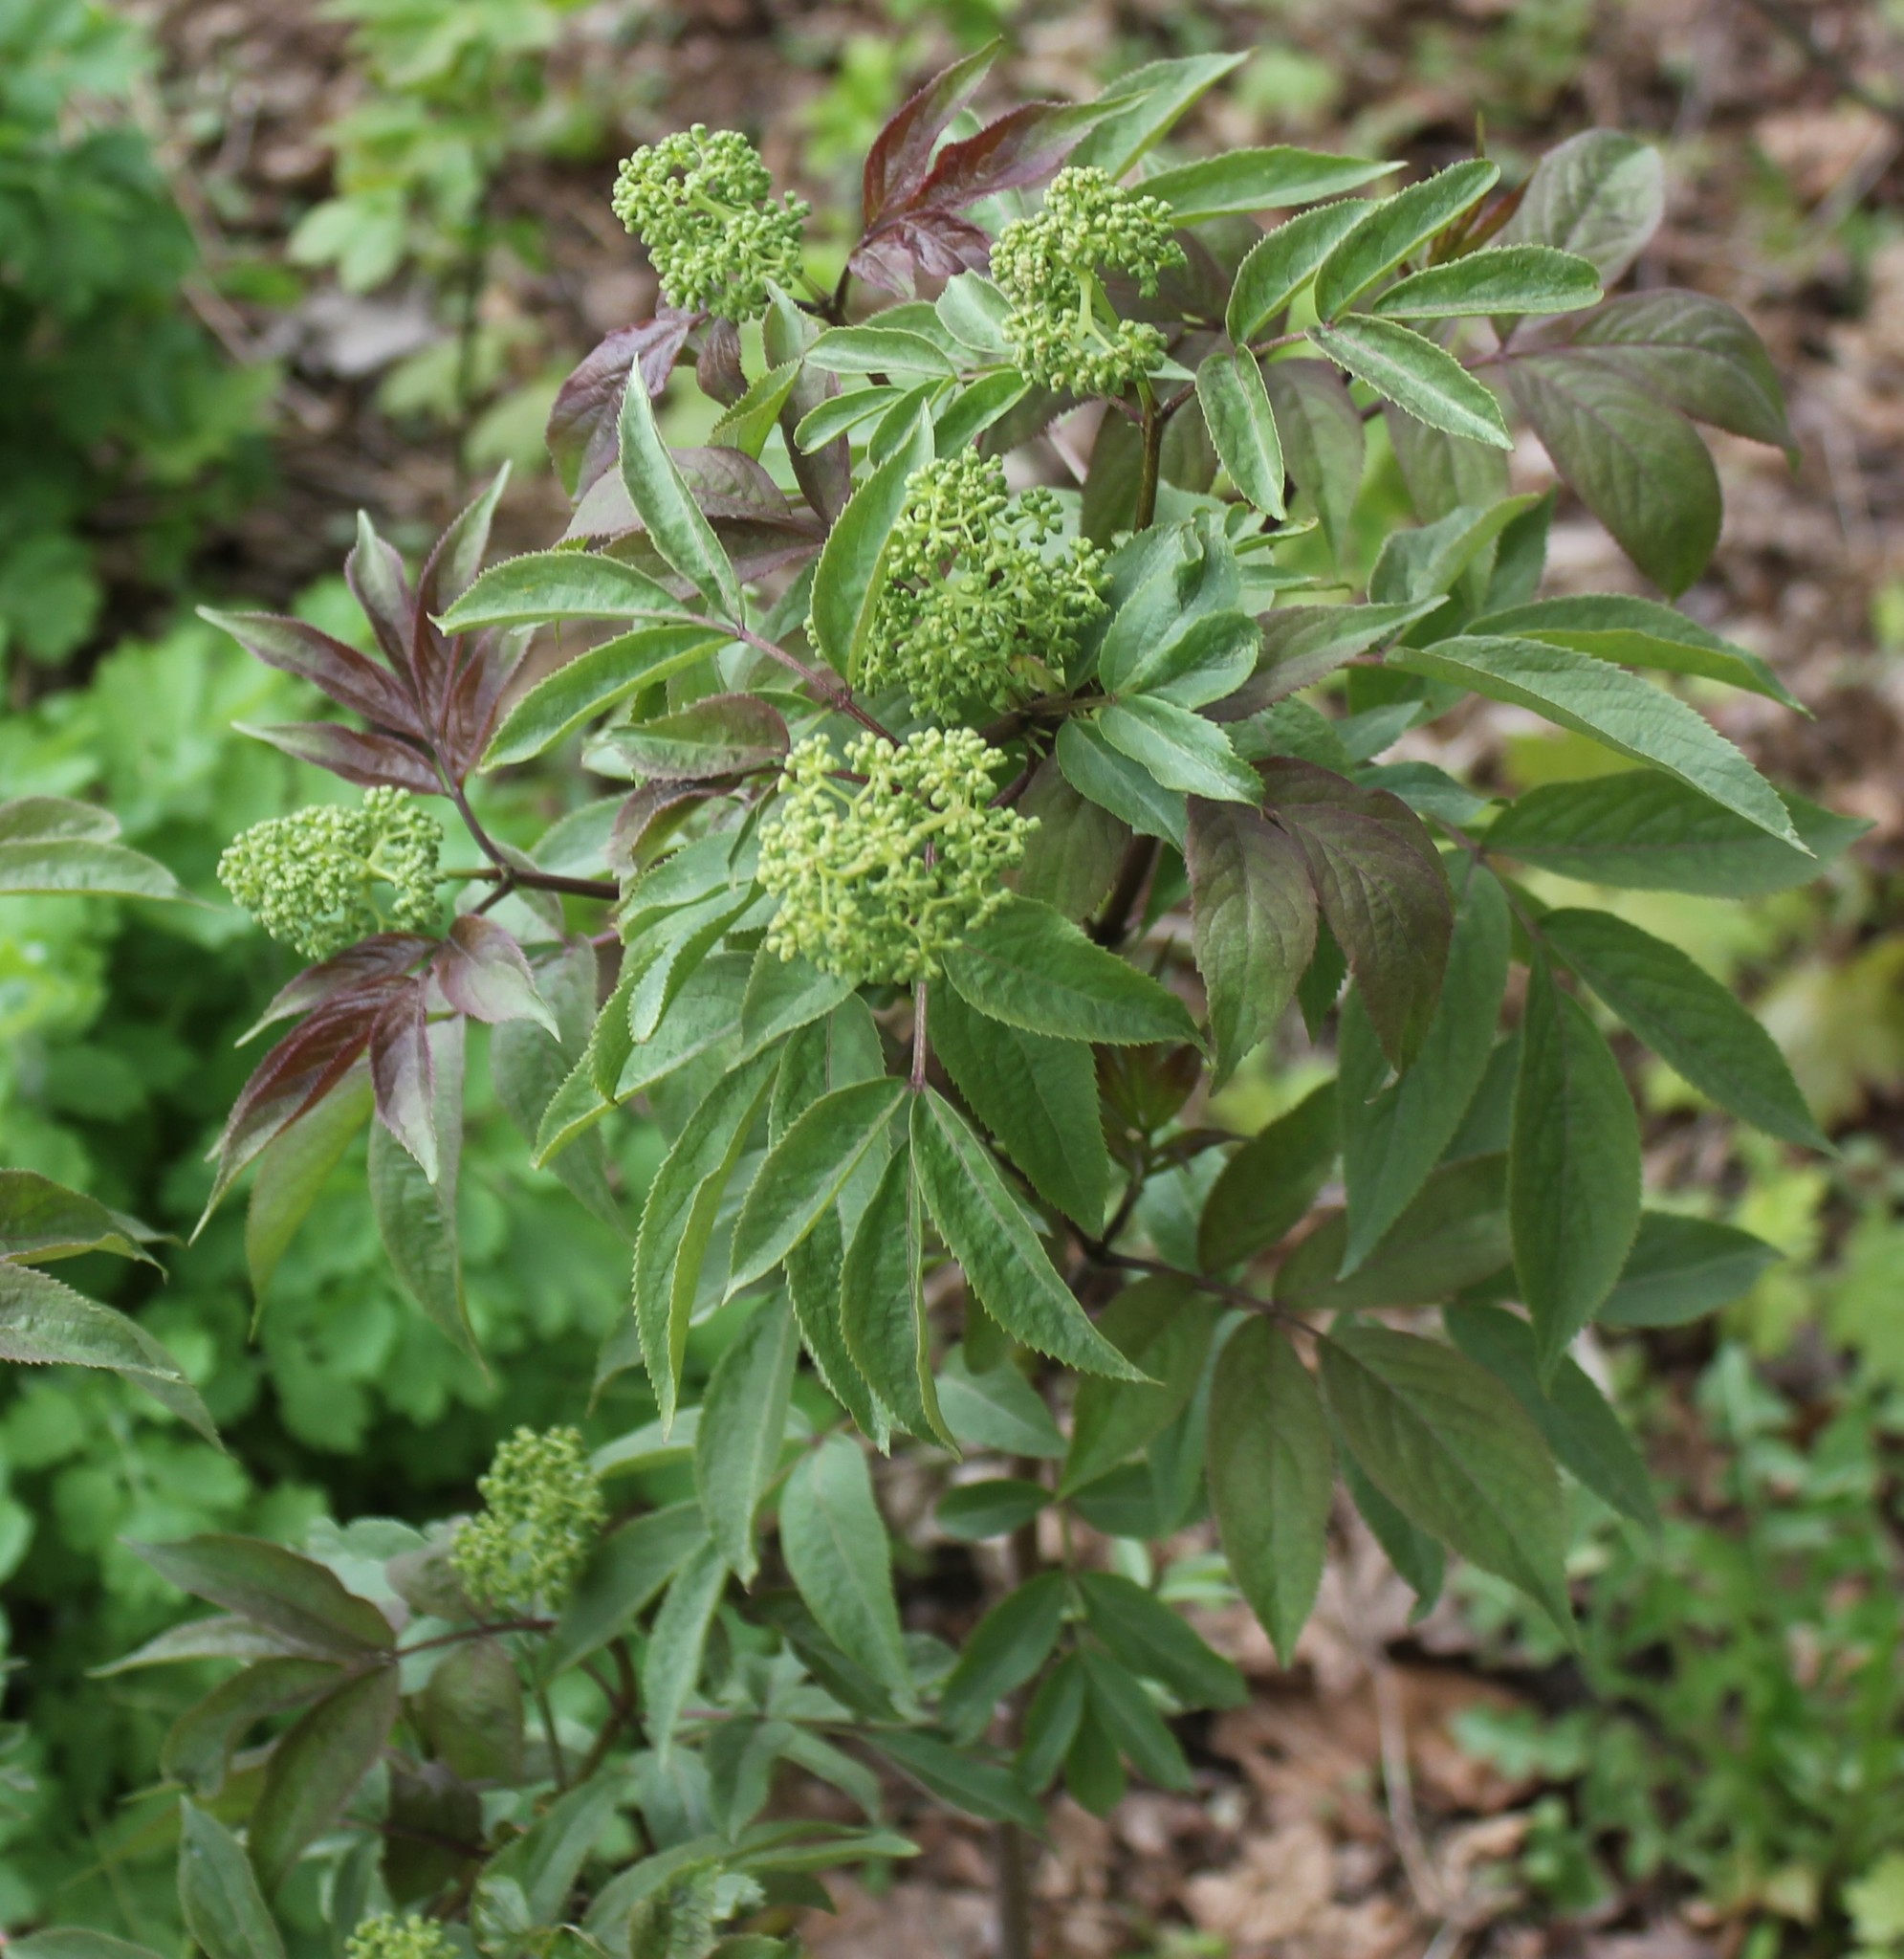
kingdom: Plantae
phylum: Tracheophyta
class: Magnoliopsida
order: Dipsacales
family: Viburnaceae
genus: Sambucus
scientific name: Sambucus racemosa
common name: Red-berried elder
